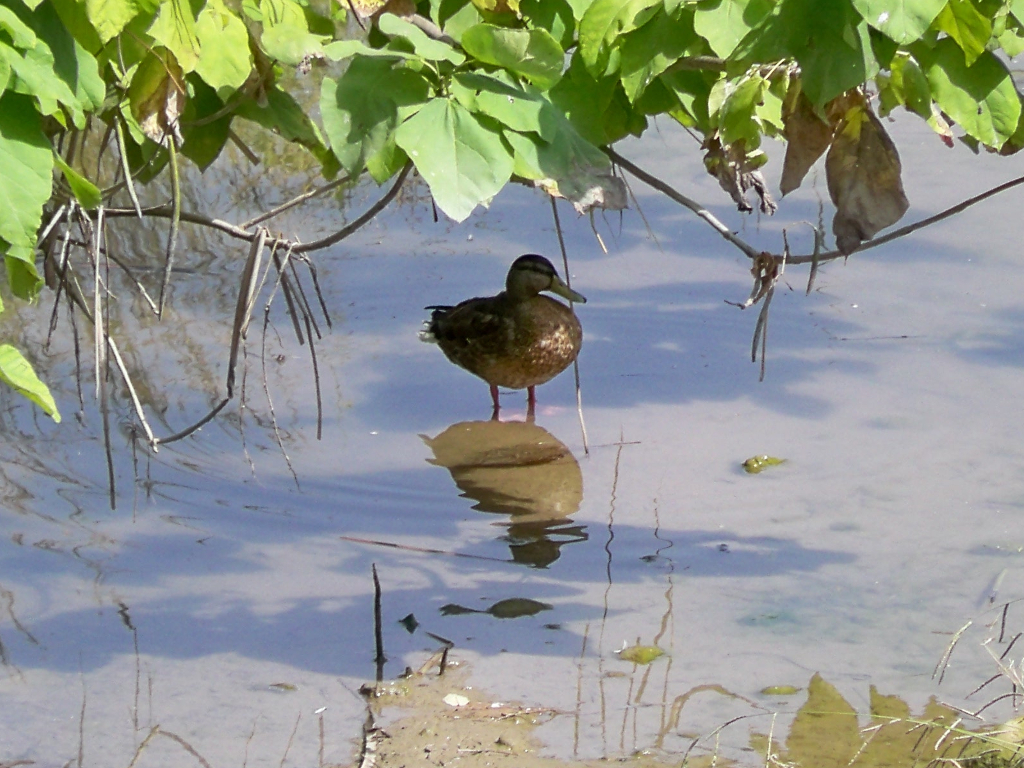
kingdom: Animalia
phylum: Chordata
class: Aves
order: Anseriformes
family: Anatidae
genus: Anas
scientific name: Anas platyrhynchos
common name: Mallard
